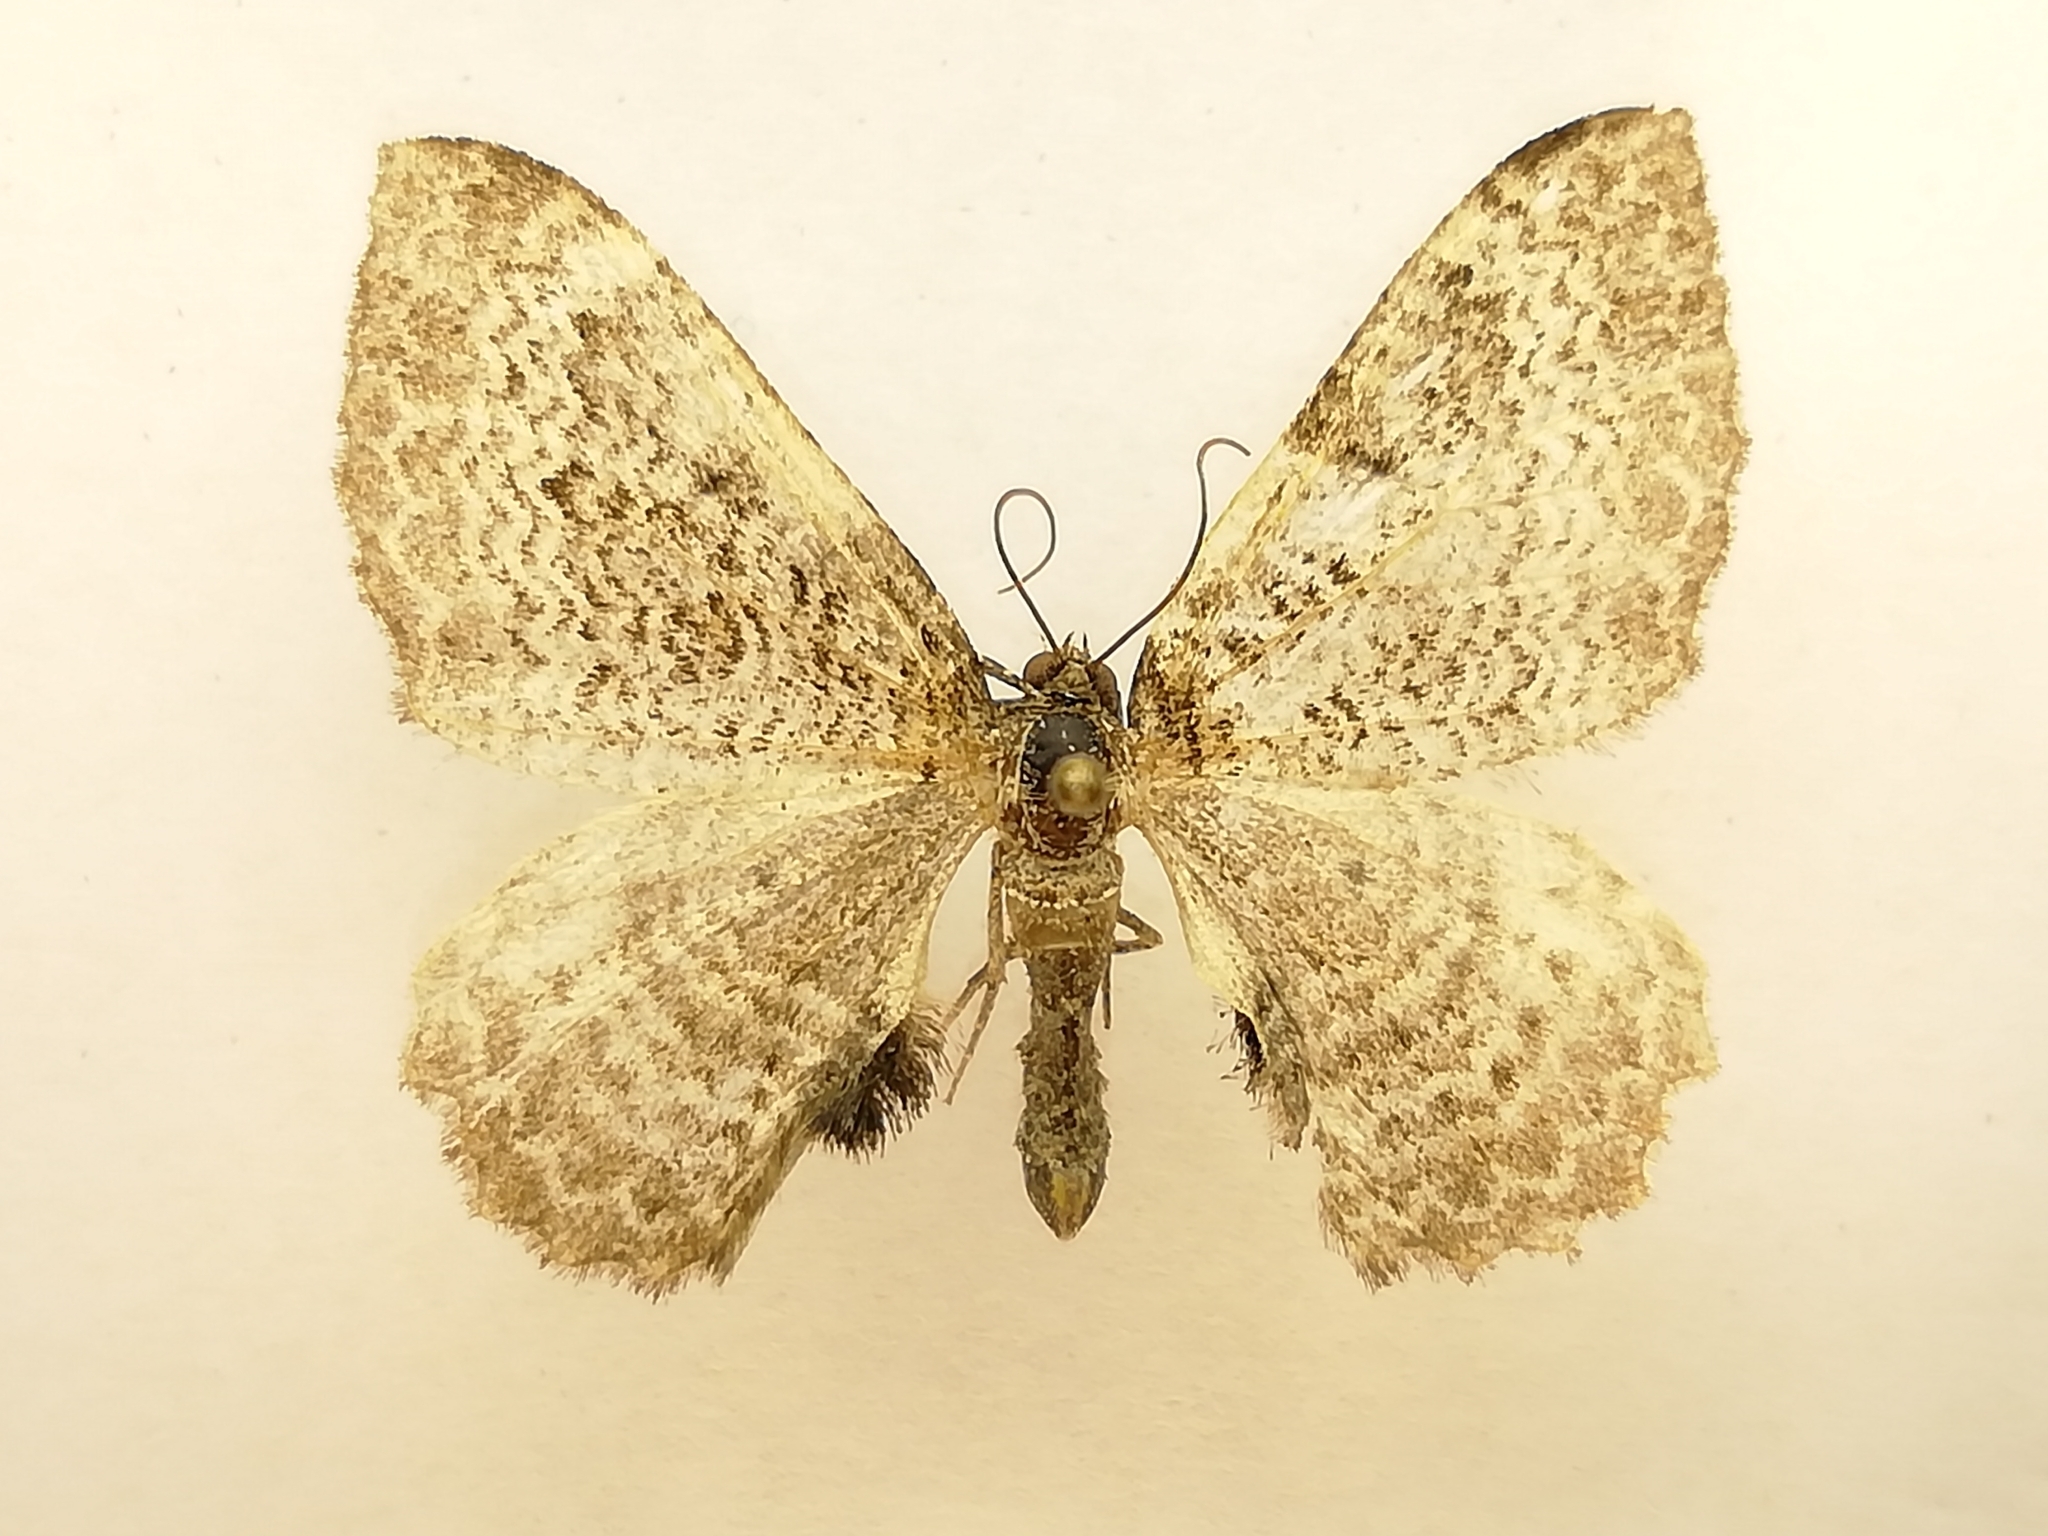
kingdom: Animalia
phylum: Arthropoda
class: Insecta
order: Lepidoptera
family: Geometridae
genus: Rheumaptera
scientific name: Rheumaptera undulata
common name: Scallop shell
